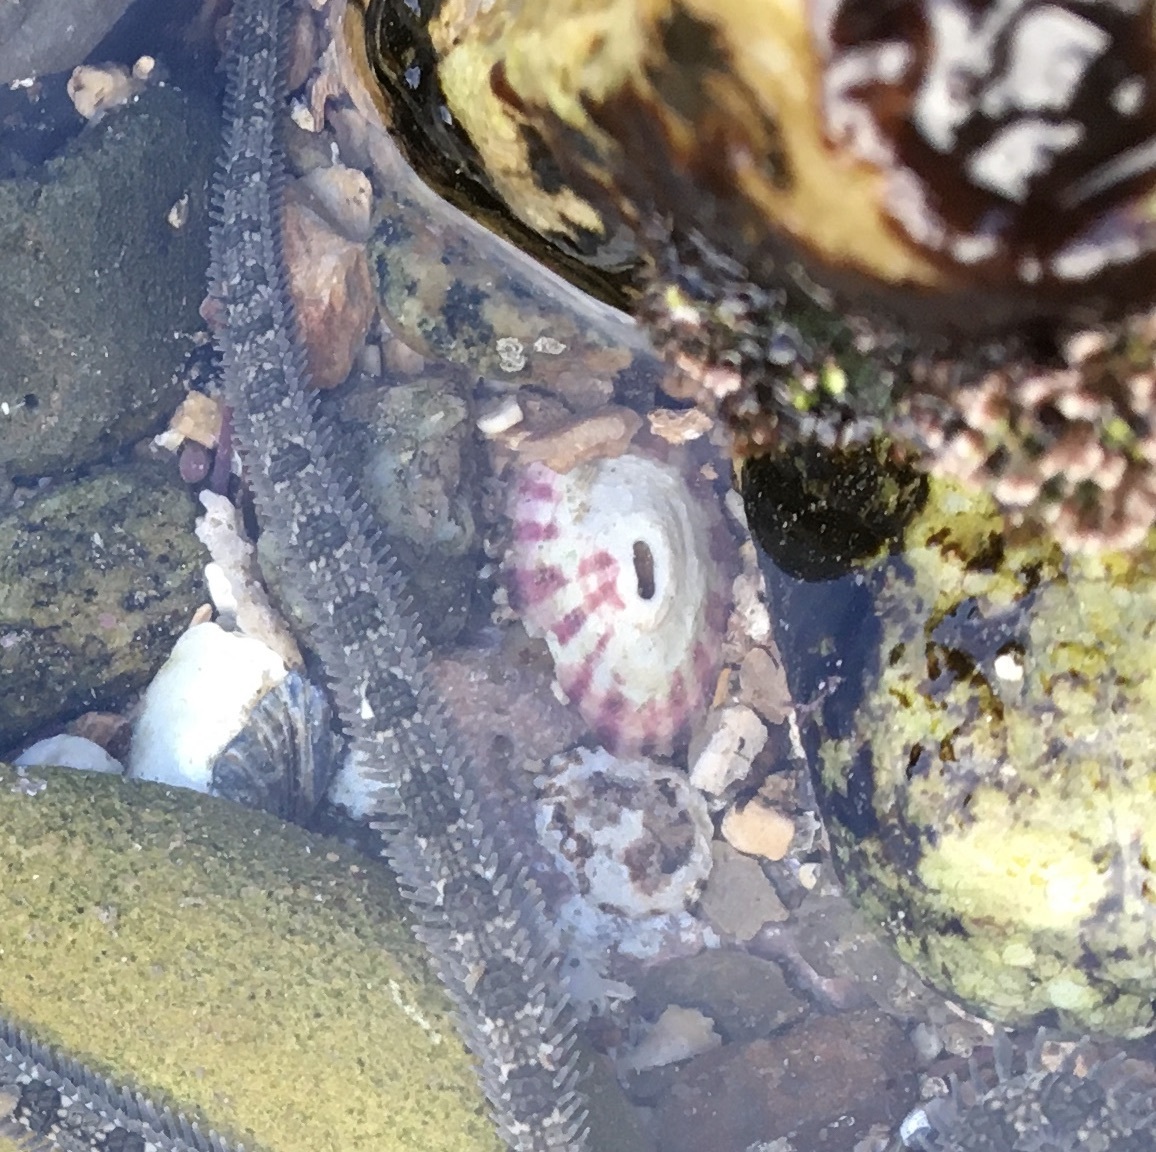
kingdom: Animalia
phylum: Mollusca
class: Gastropoda
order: Lepetellida
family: Fissurellidae
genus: Fissurella
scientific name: Fissurella volcano
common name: Volcano keyhole limpet
